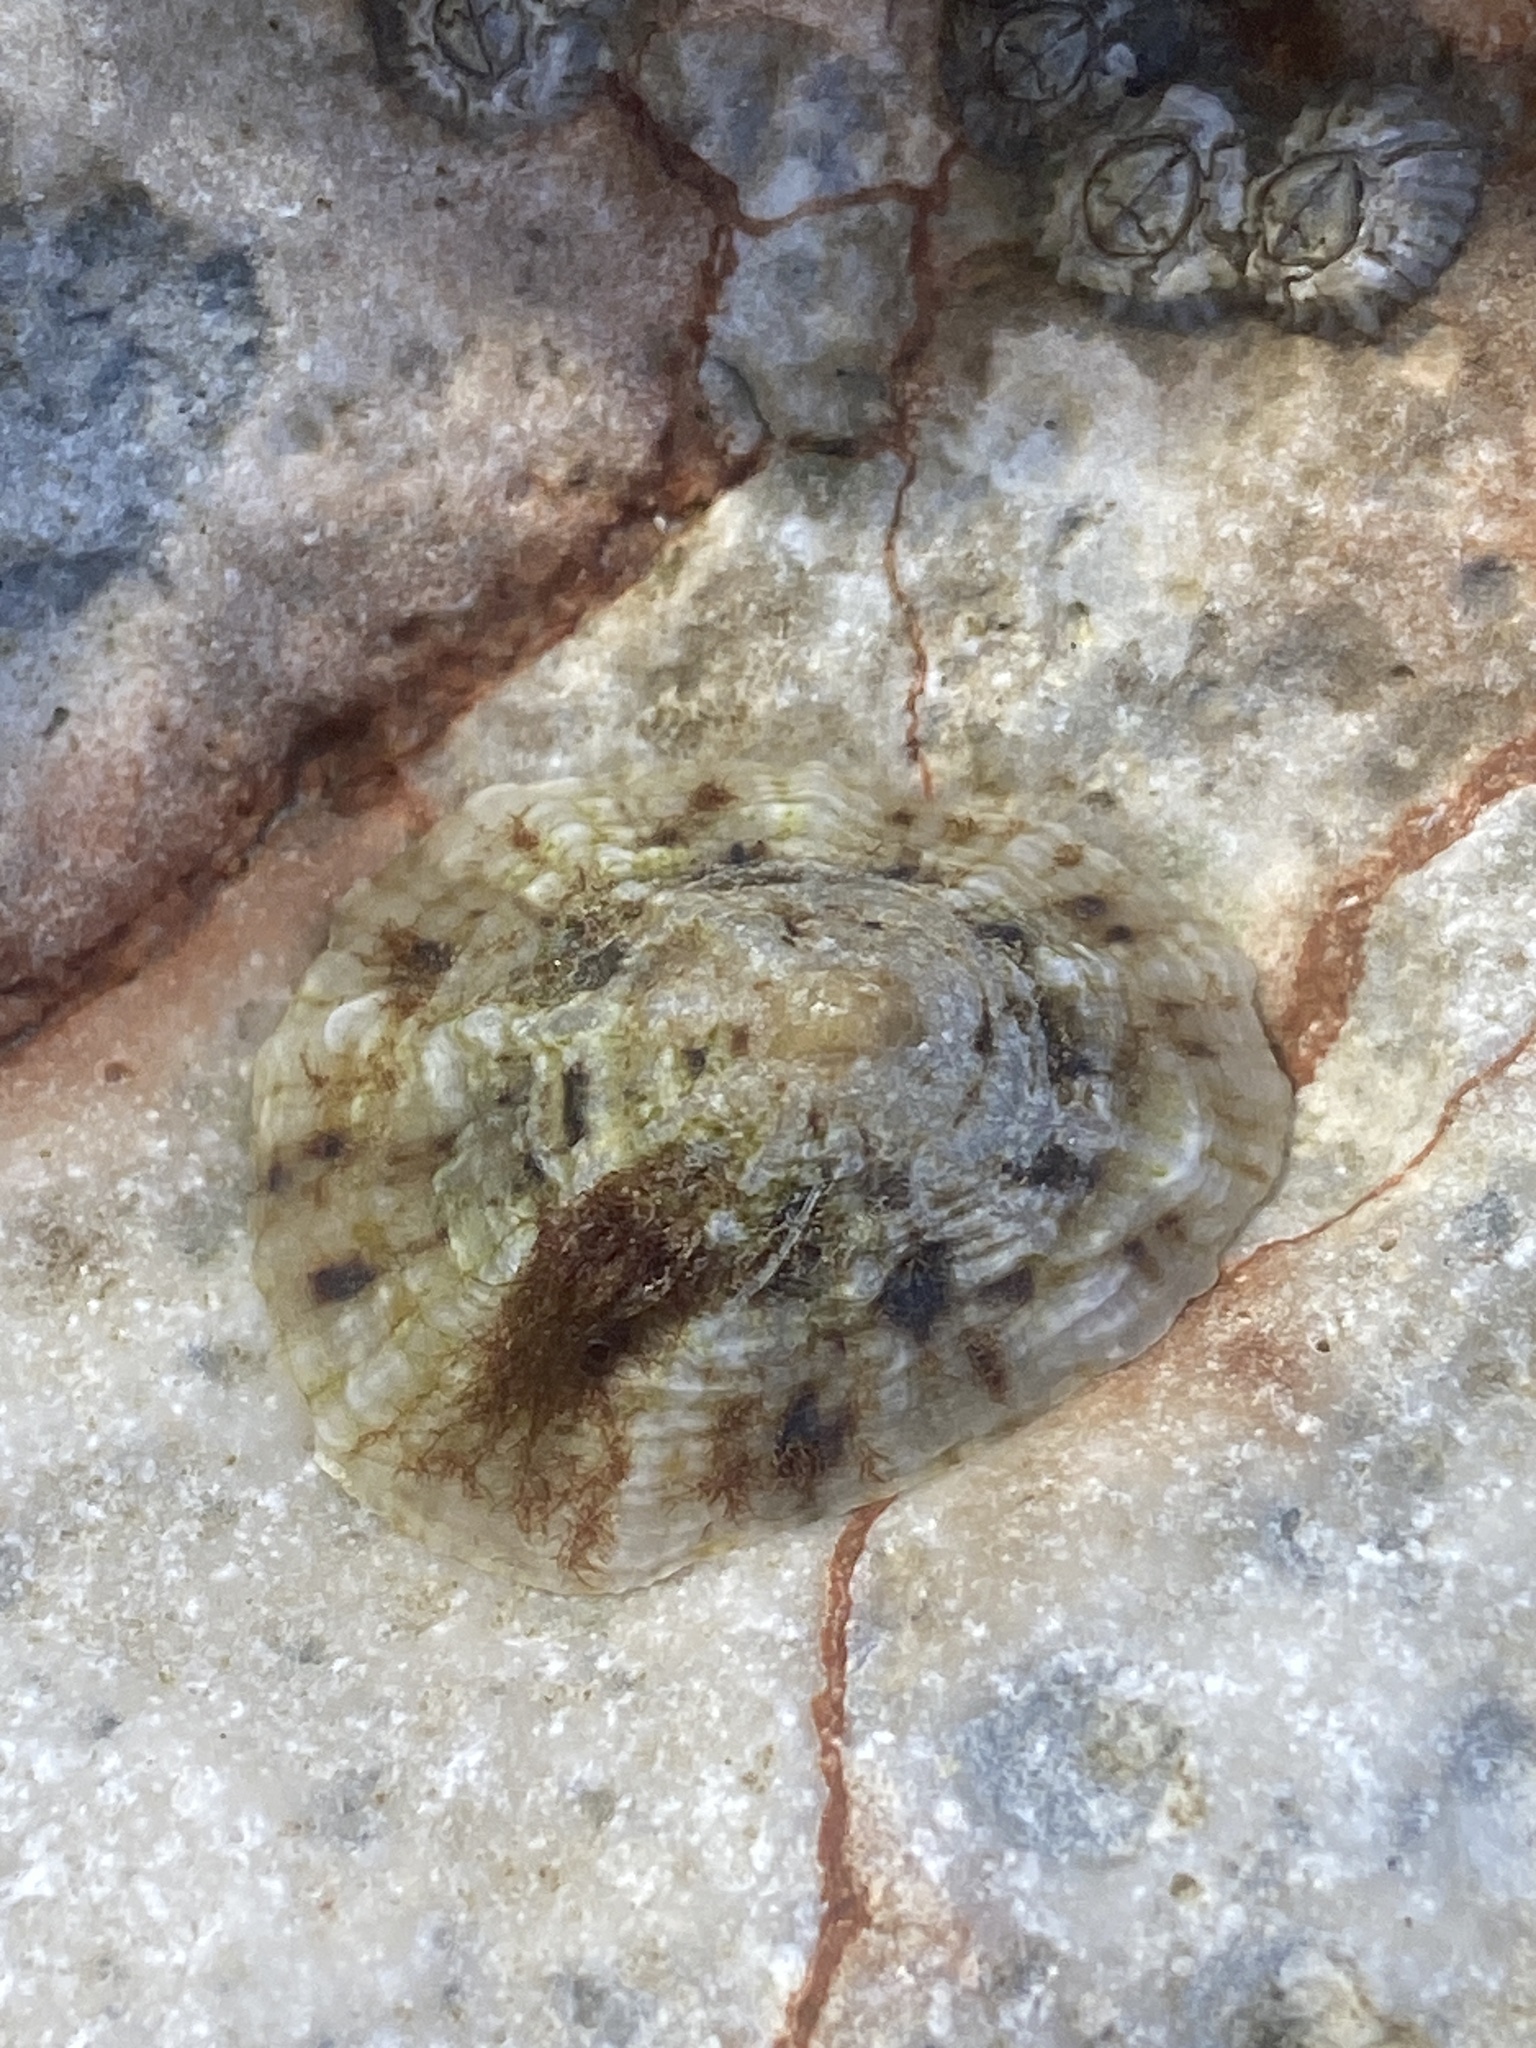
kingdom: Animalia
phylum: Mollusca
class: Gastropoda
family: Patellidae
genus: Patella
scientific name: Patella caerulea
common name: Mediterranean limpet
